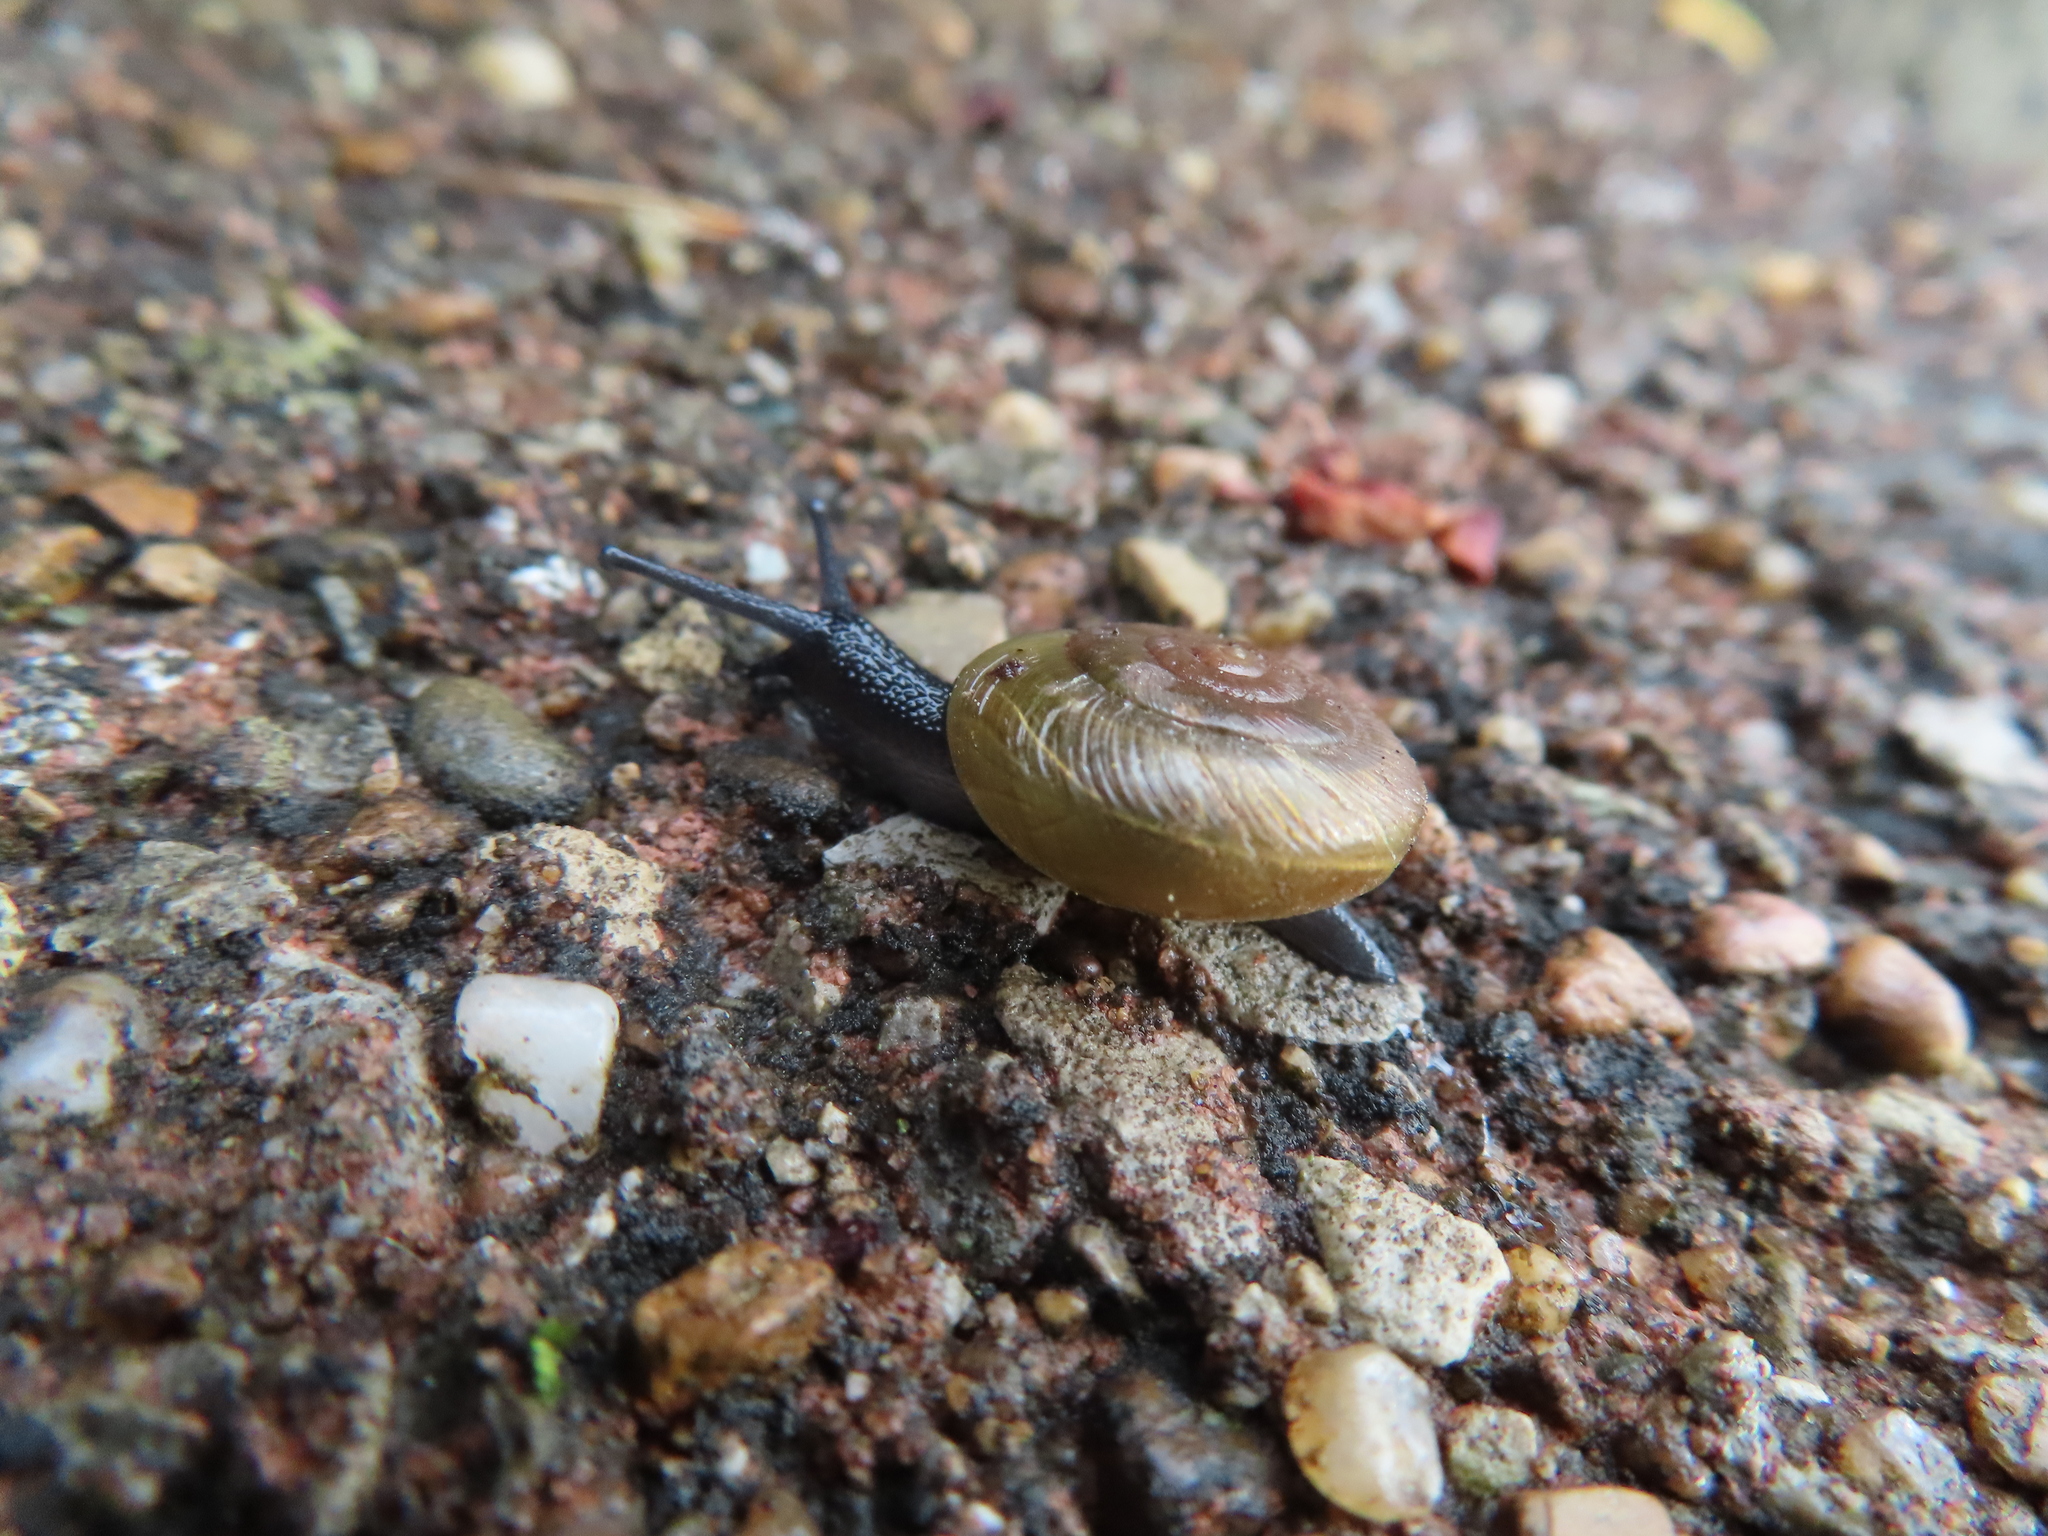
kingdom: Animalia
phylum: Mollusca
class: Gastropoda
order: Stylommatophora
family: Gastrodontidae
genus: Ventridens
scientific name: Ventridens ligera
